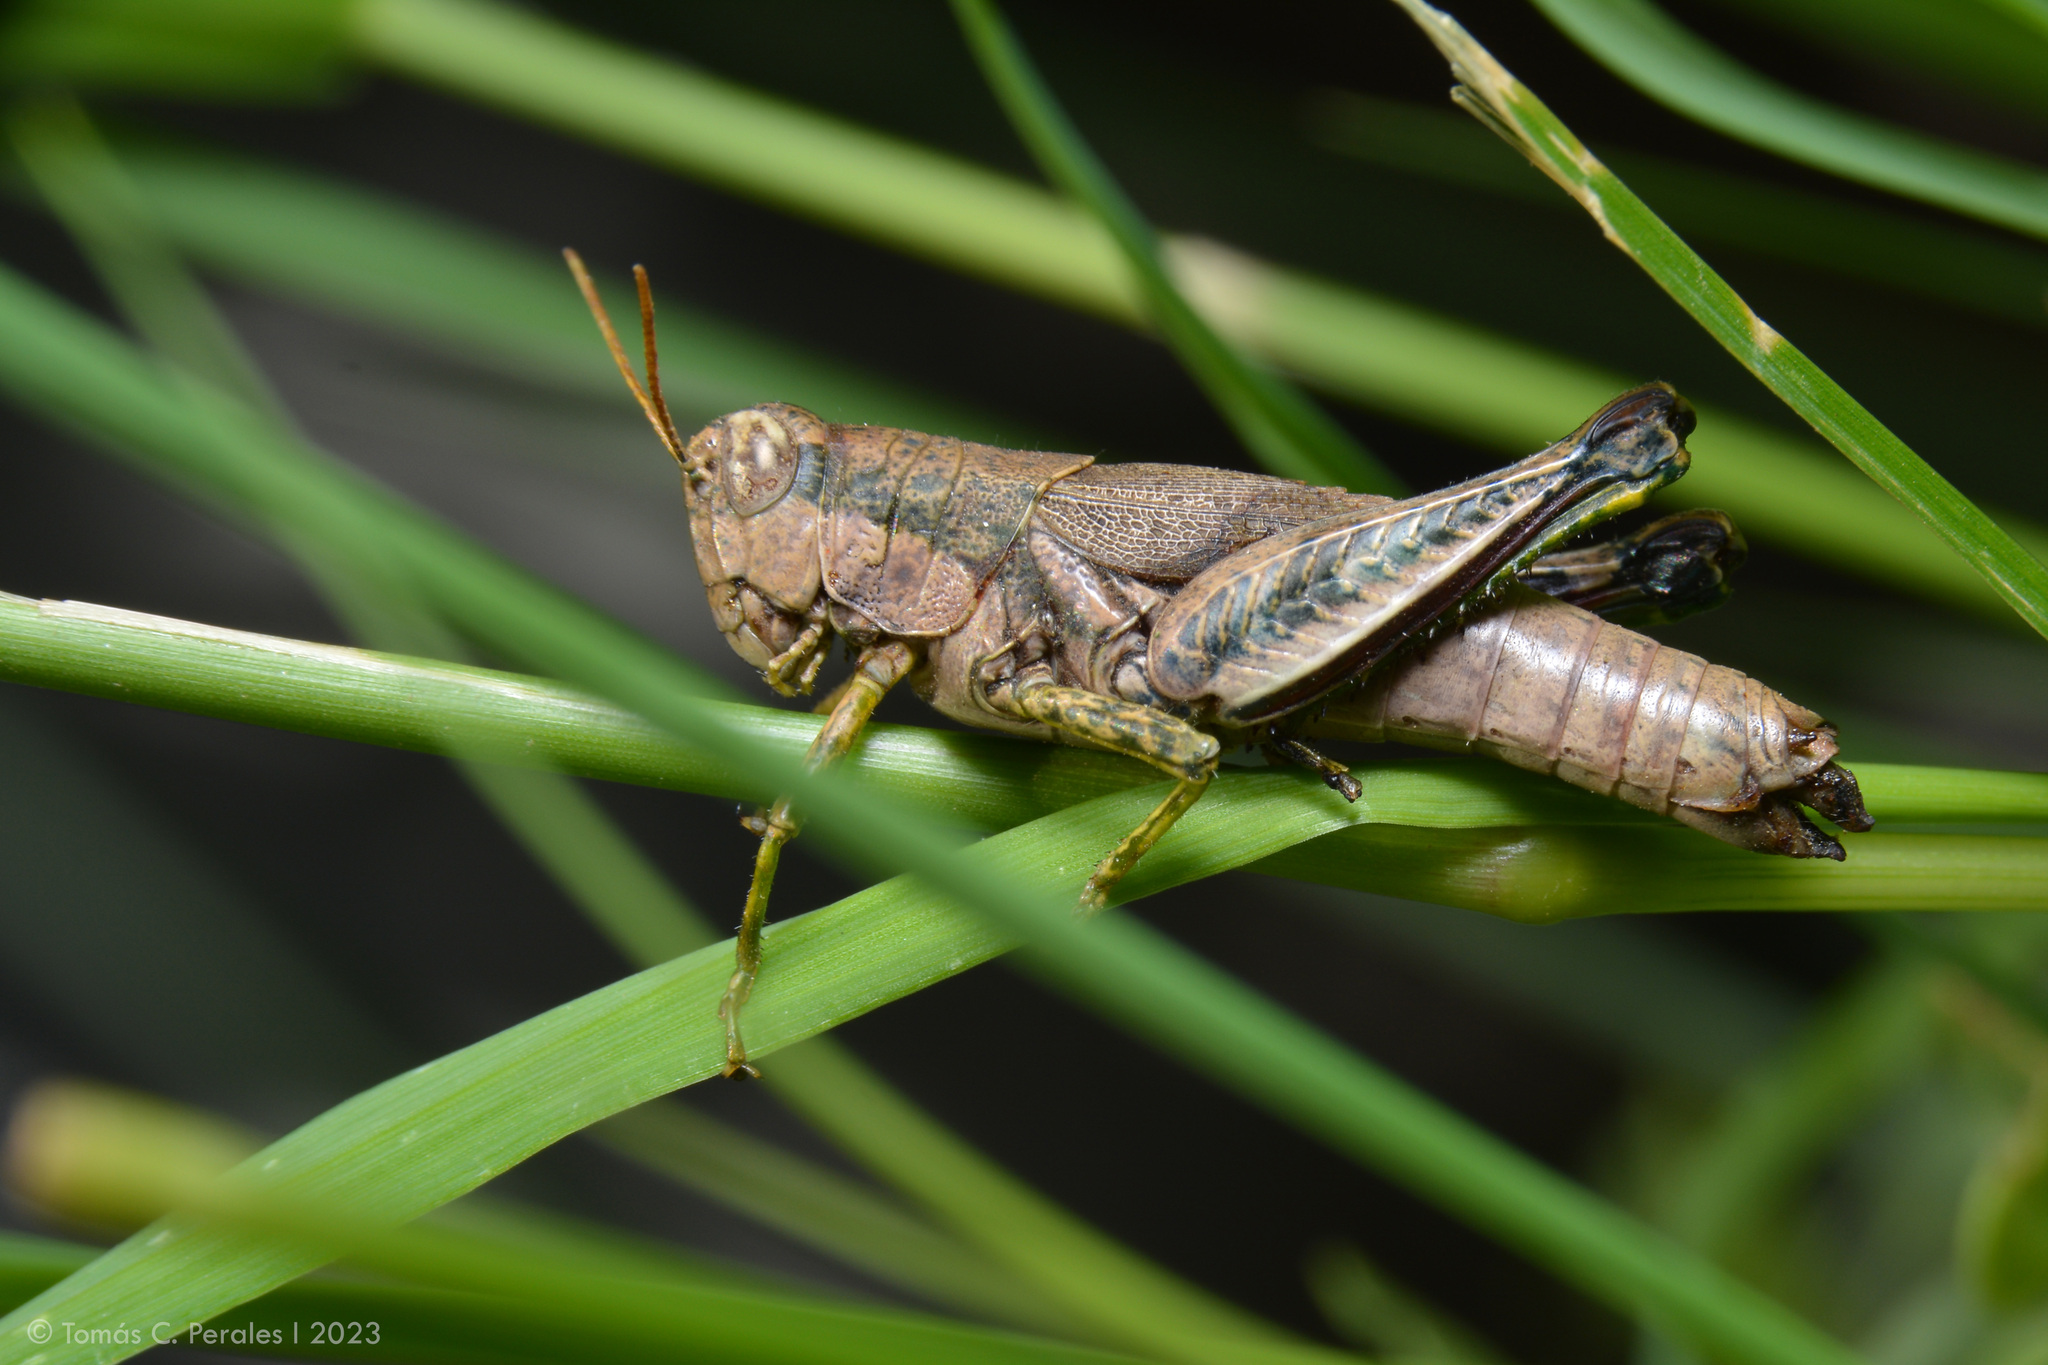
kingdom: Animalia
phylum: Arthropoda
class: Insecta
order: Orthoptera
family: Acrididae
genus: Dichroplus
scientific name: Dichroplus schulzi
